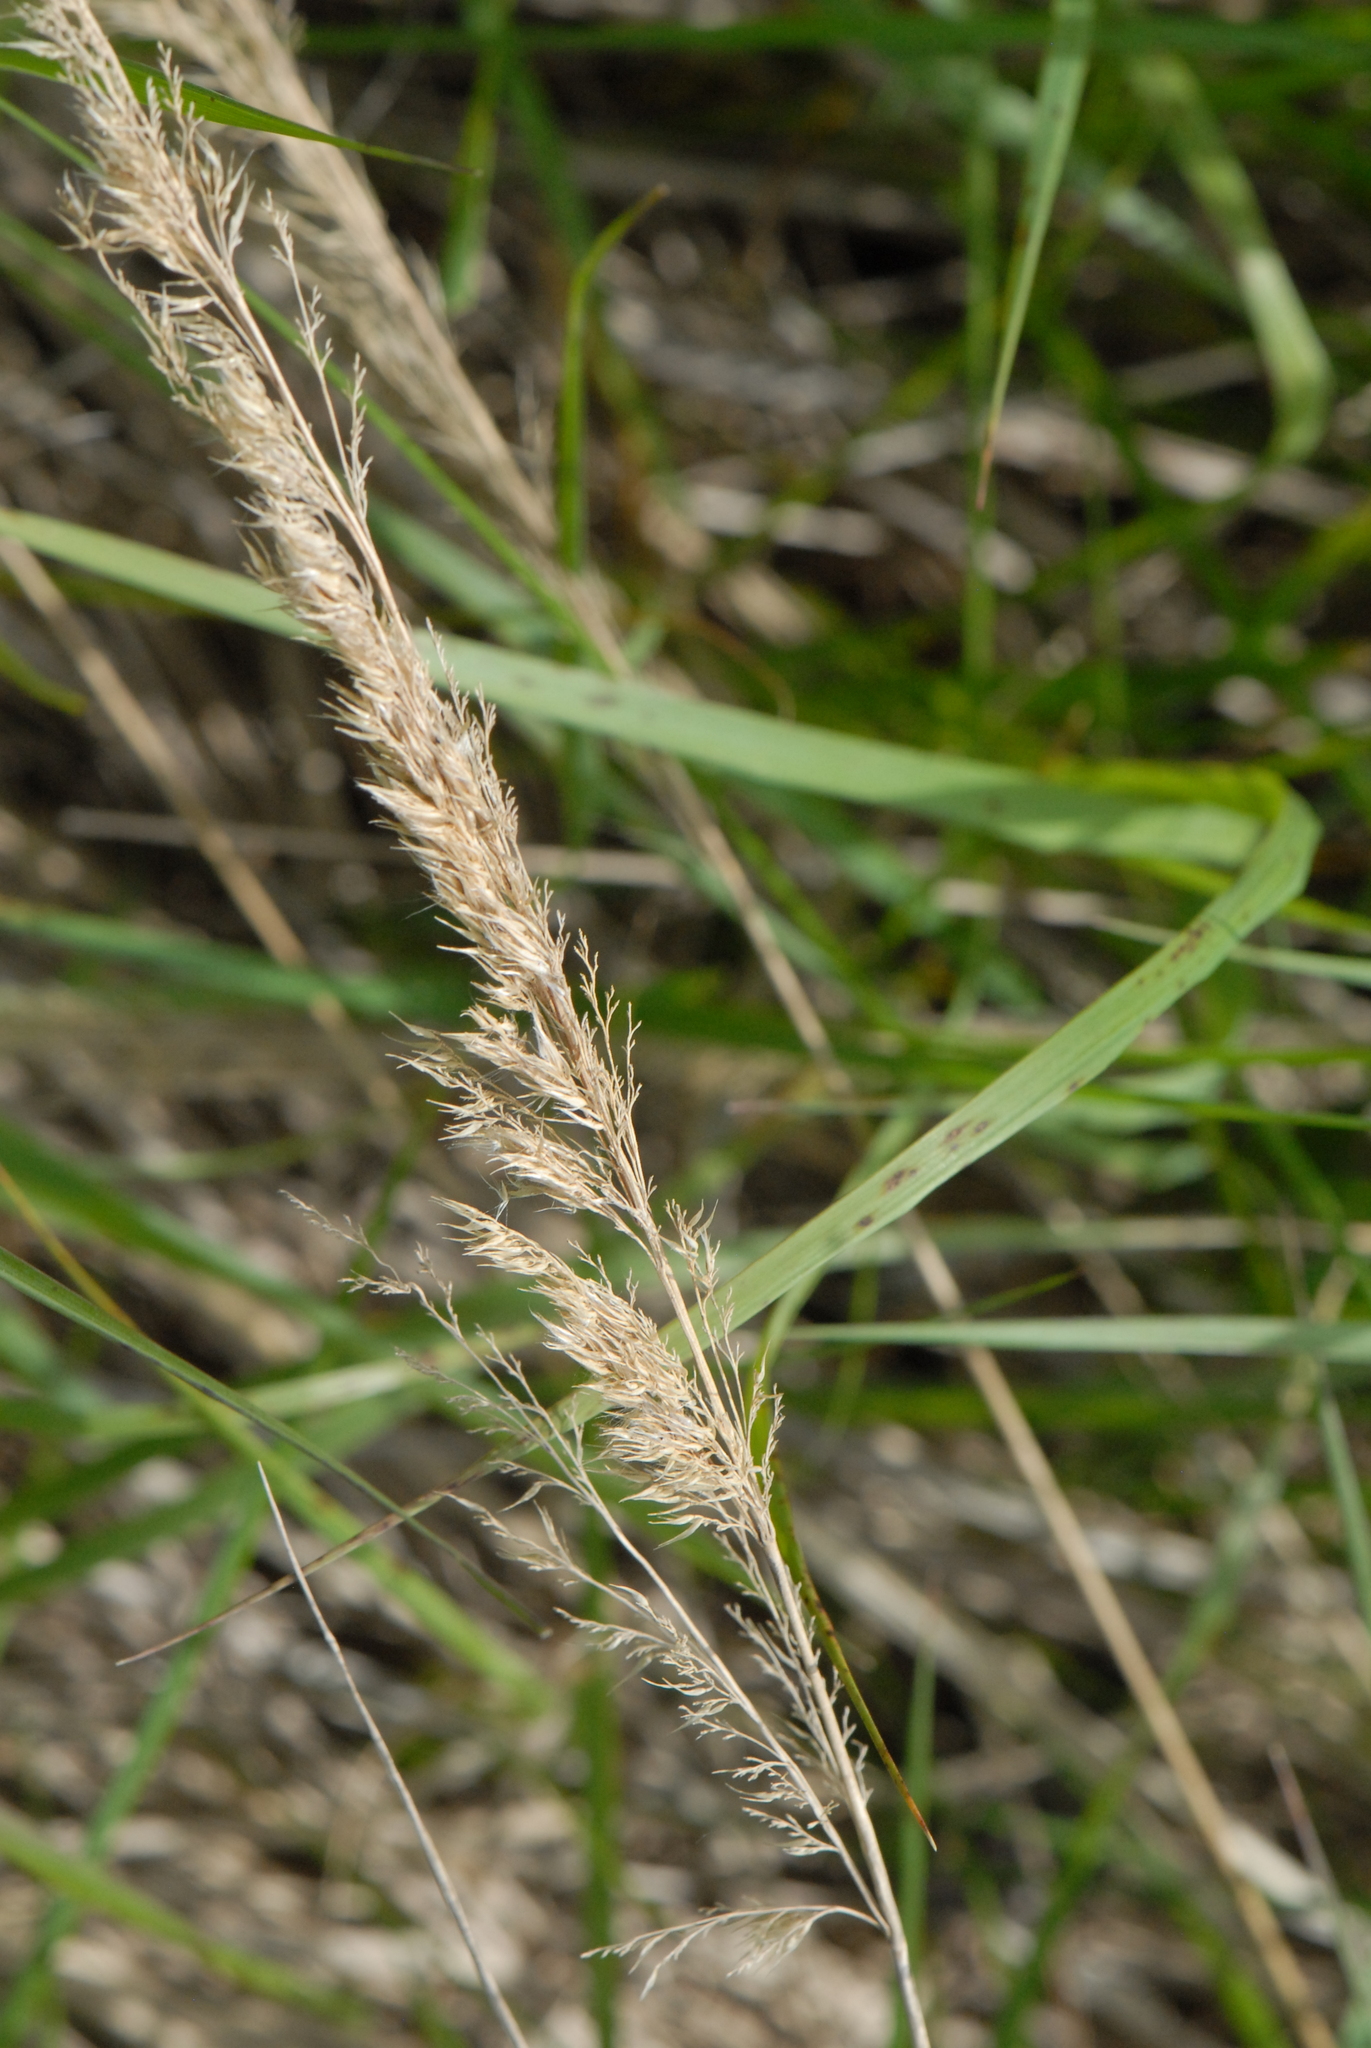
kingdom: Plantae
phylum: Tracheophyta
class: Liliopsida
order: Poales
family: Poaceae
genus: Calamagrostis
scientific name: Calamagrostis epigejos
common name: Wood small-reed
